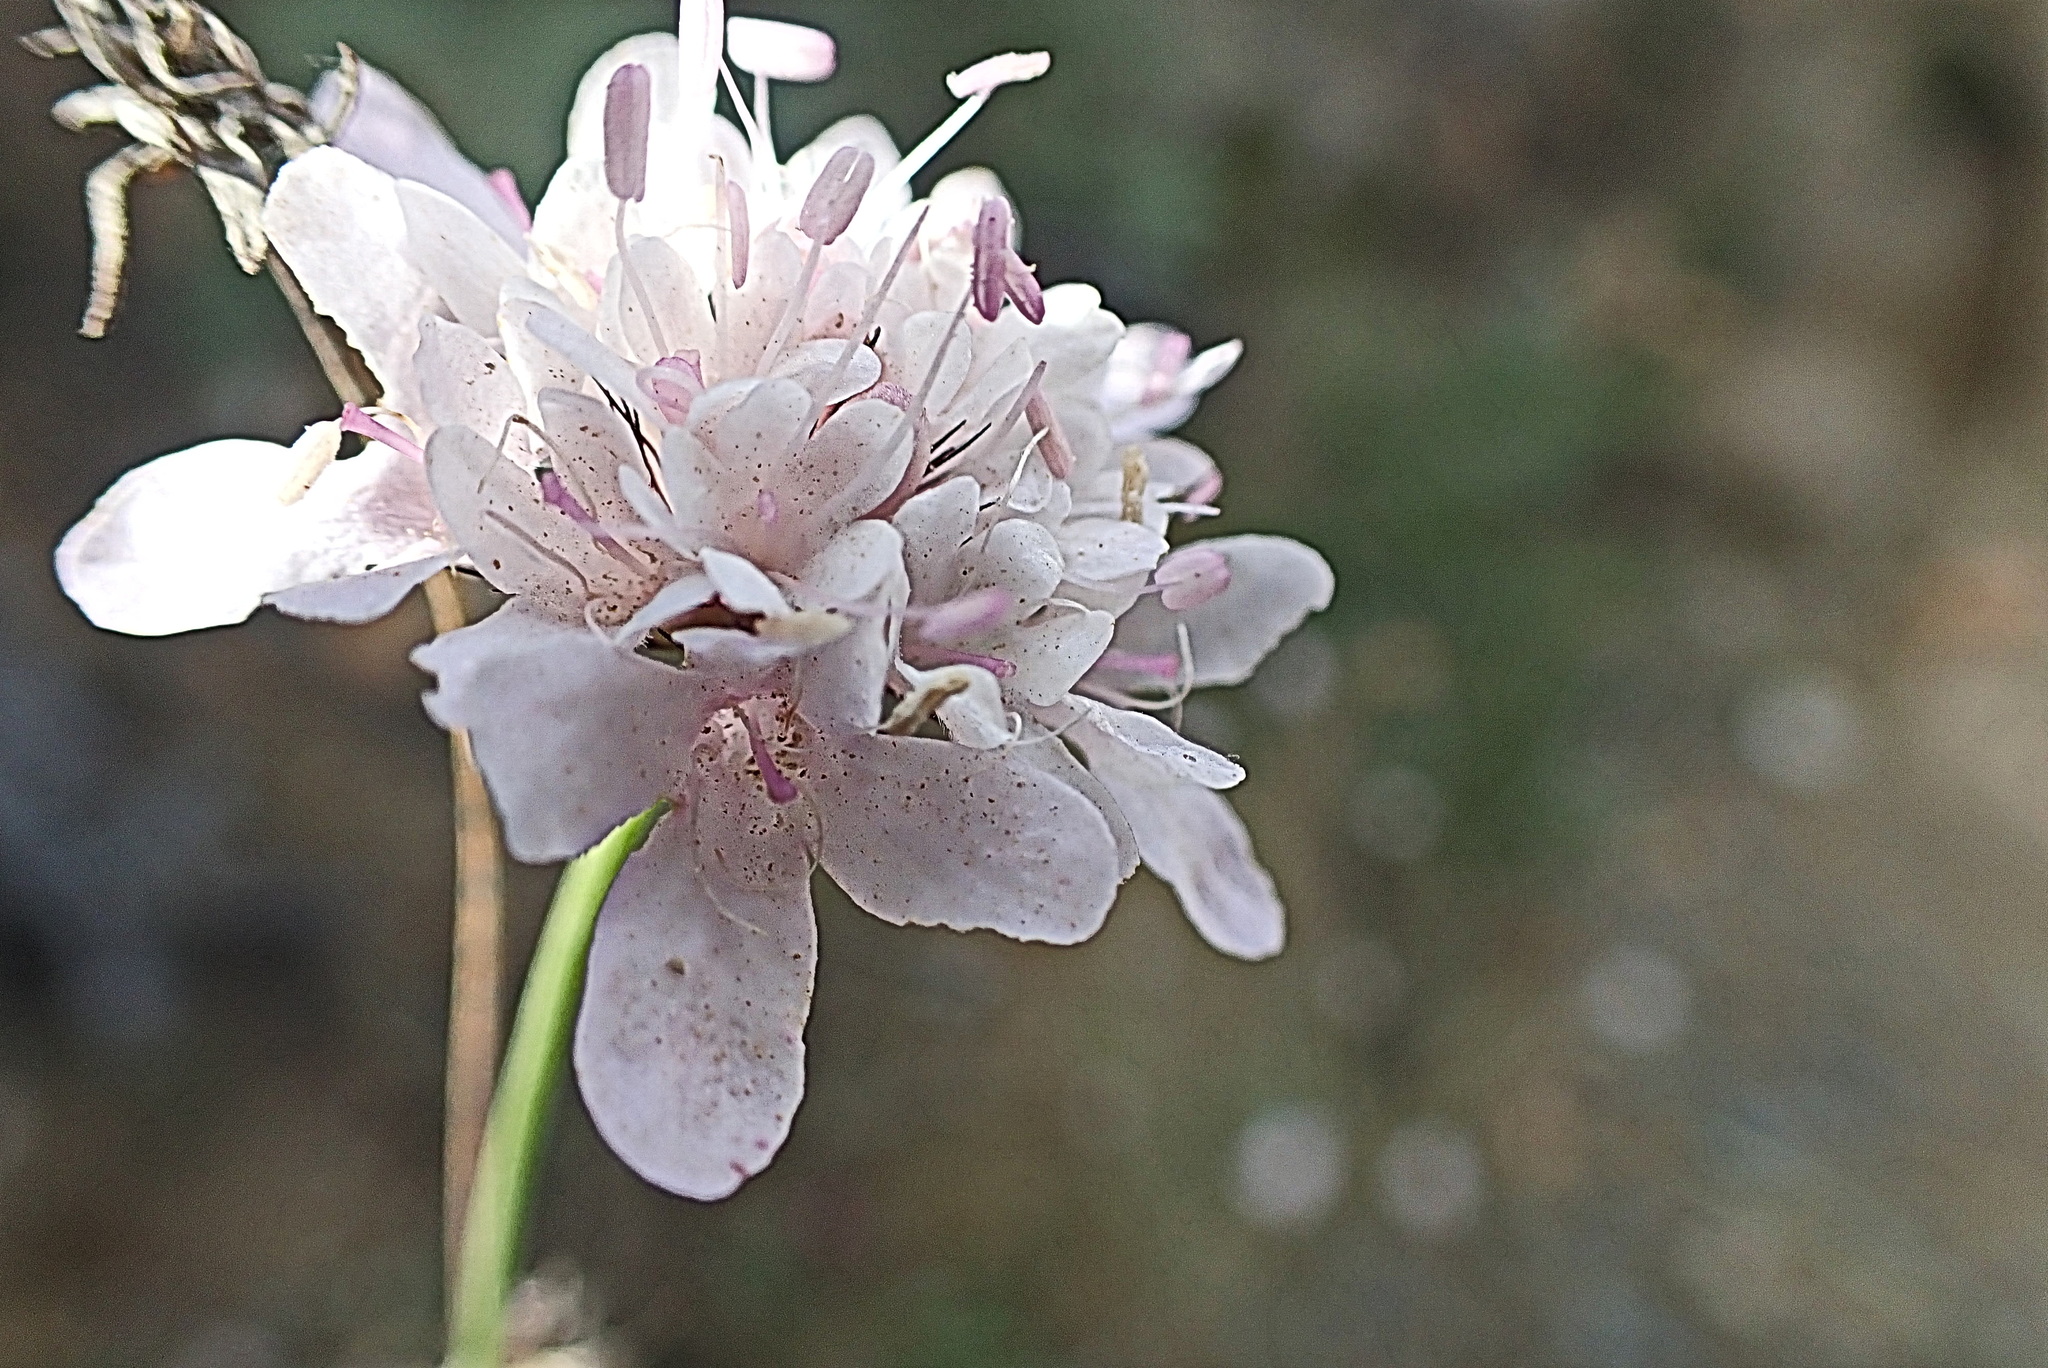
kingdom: Plantae
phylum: Tracheophyta
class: Magnoliopsida
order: Dipsacales
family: Caprifoliaceae
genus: Scabiosa
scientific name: Scabiosa columbaria
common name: Small scabious
